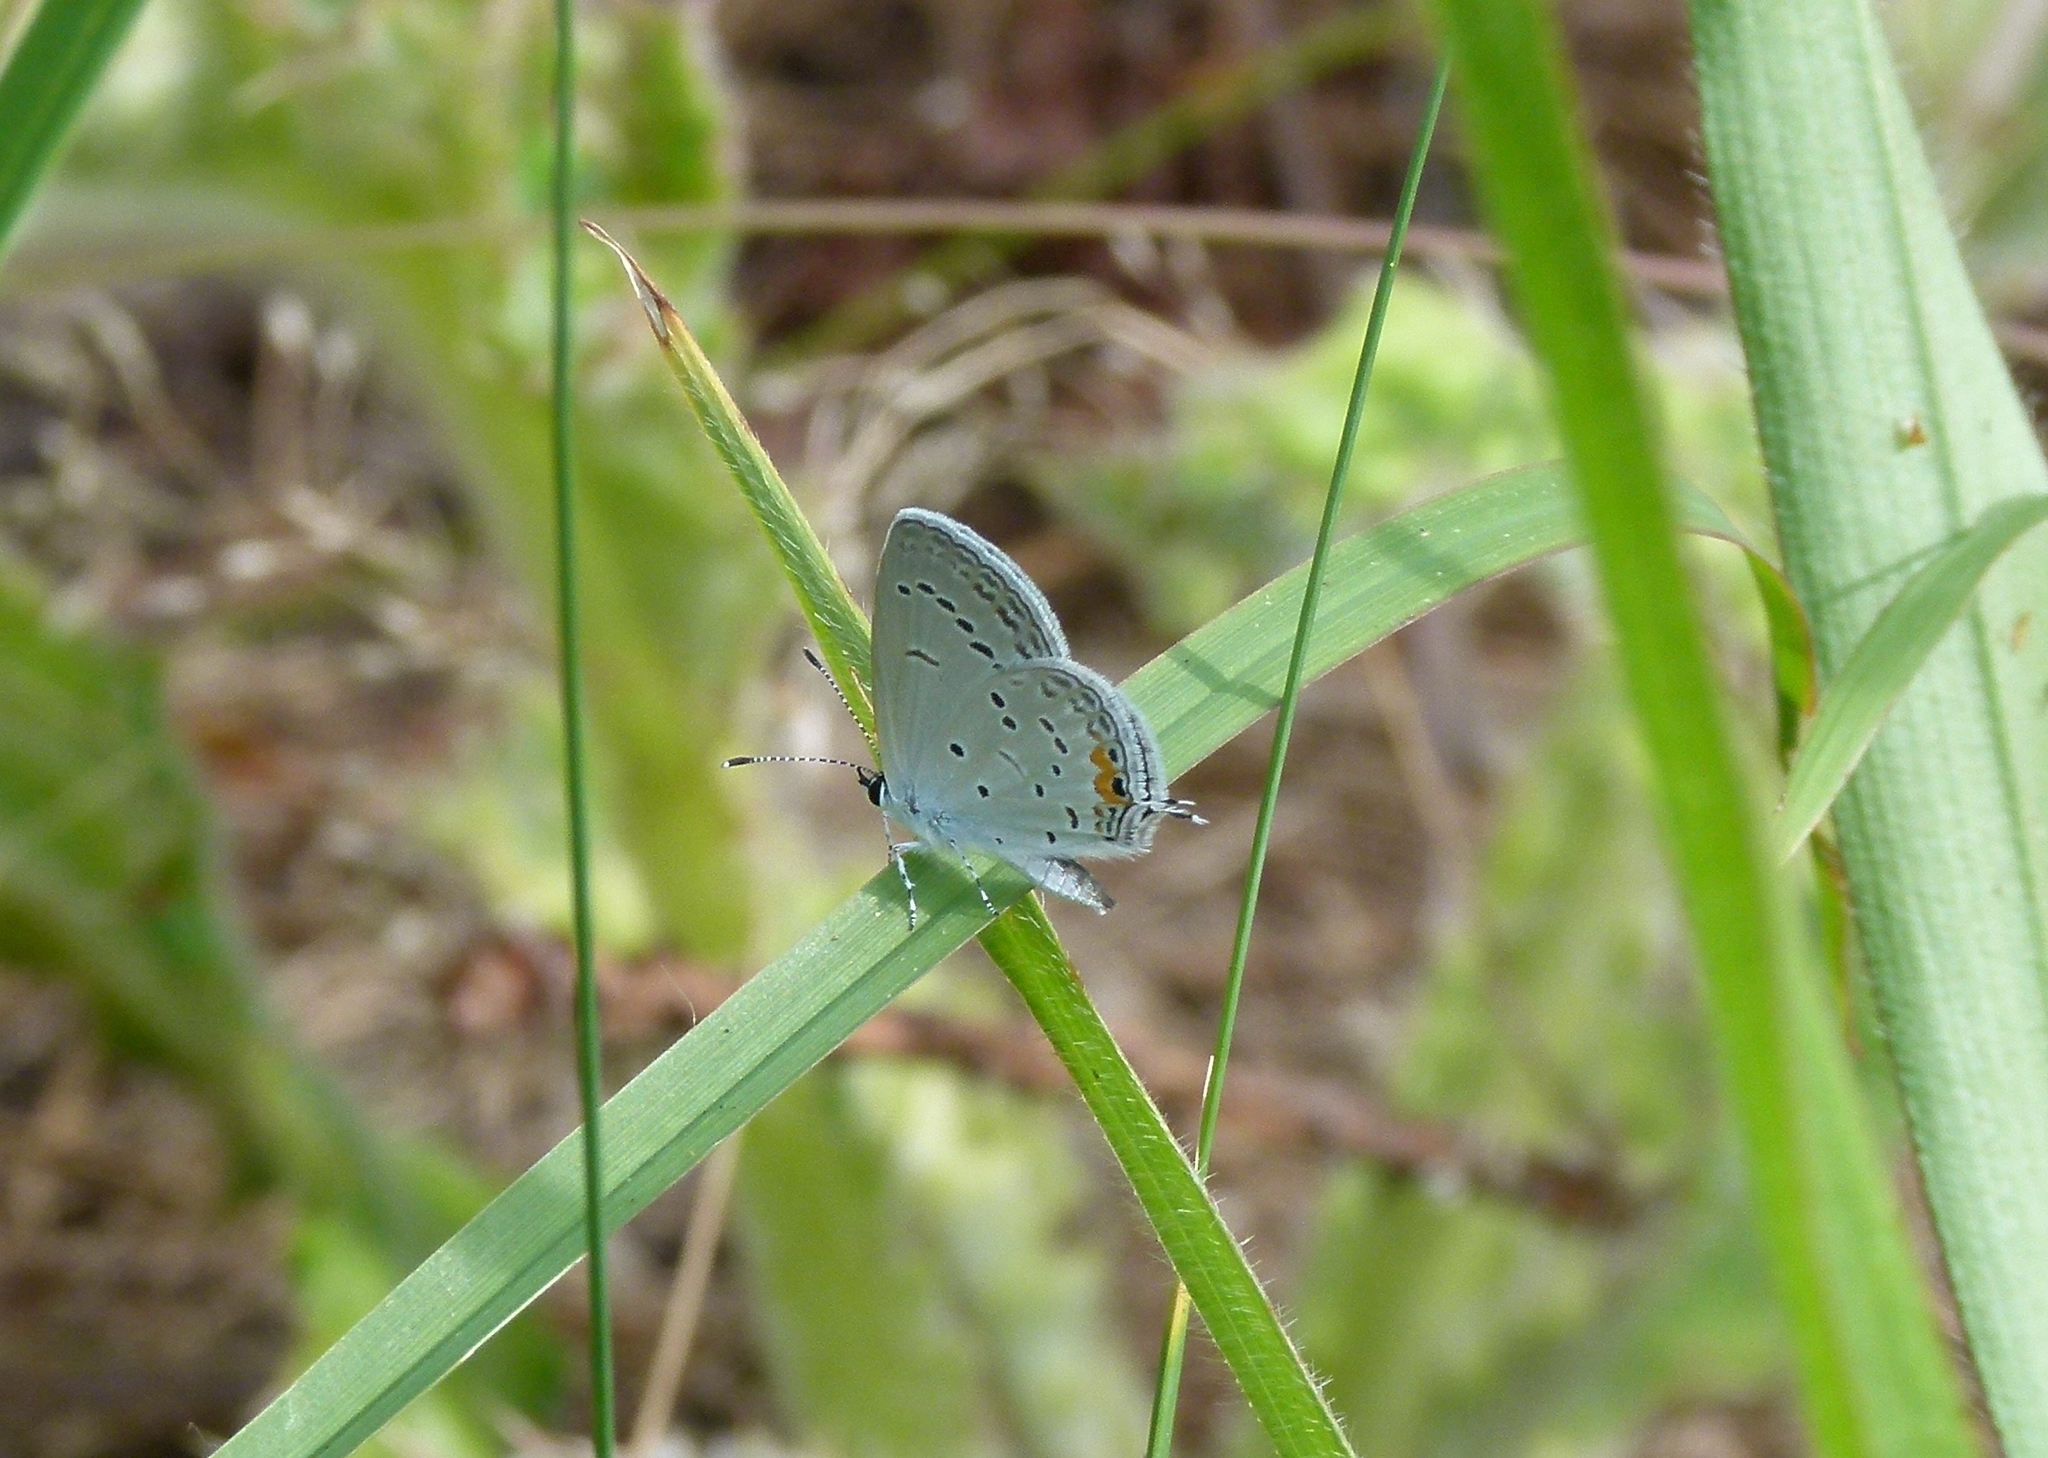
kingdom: Animalia
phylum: Arthropoda
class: Insecta
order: Lepidoptera
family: Lycaenidae
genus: Elkalyce
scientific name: Elkalyce comyntas
